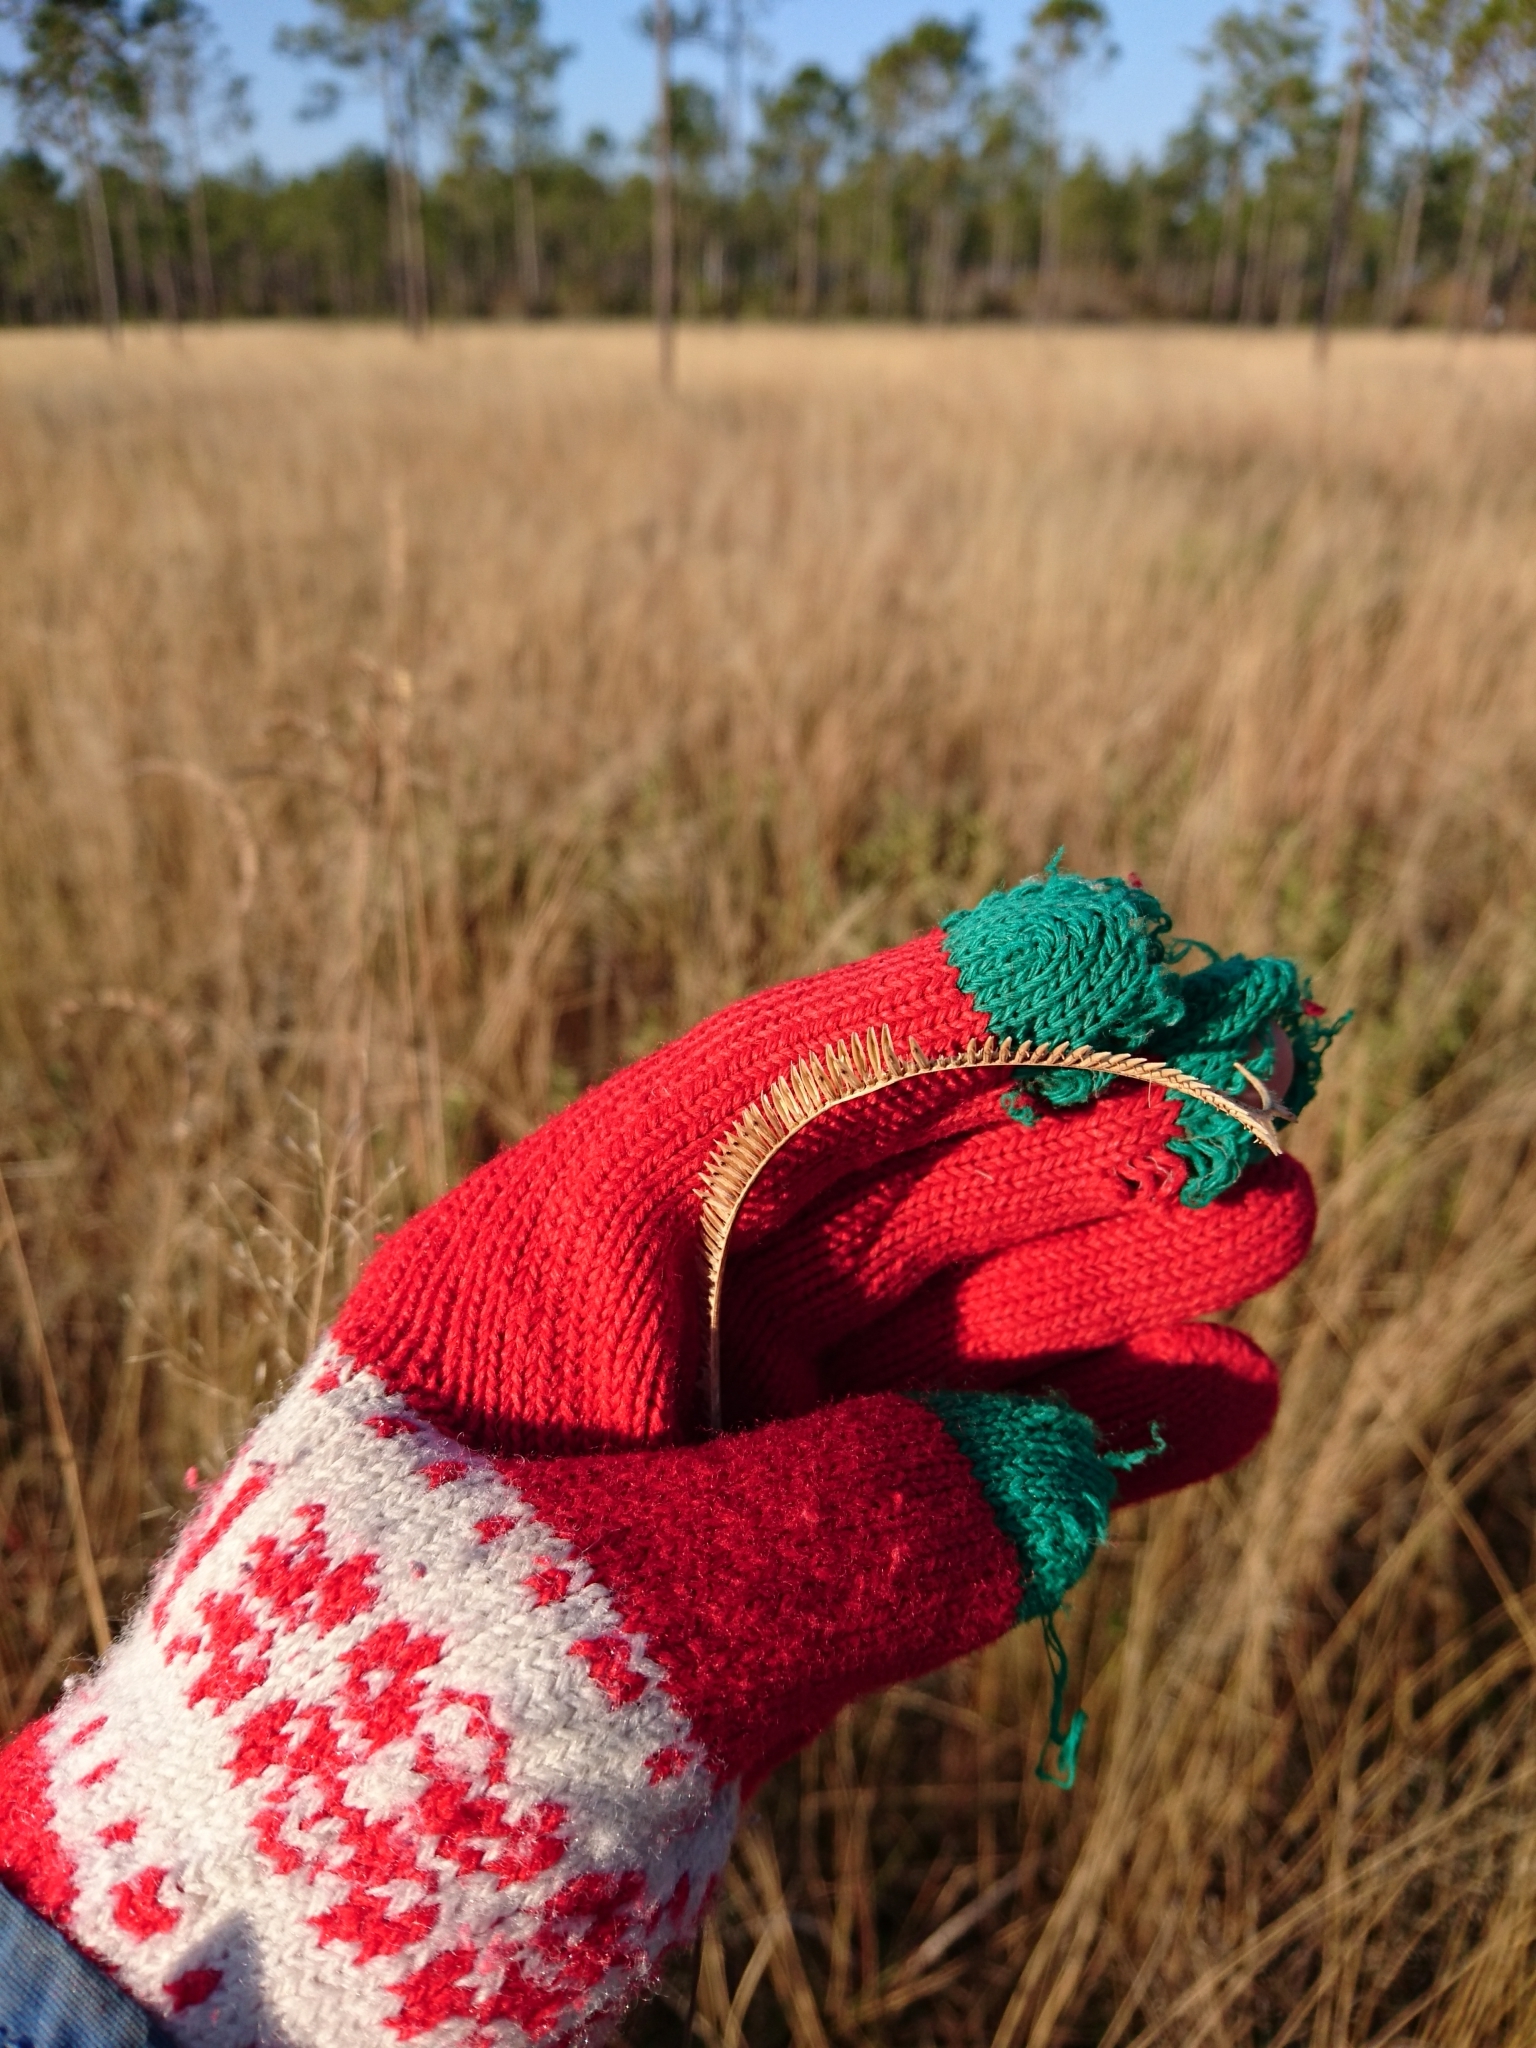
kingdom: Plantae
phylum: Tracheophyta
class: Liliopsida
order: Poales
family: Poaceae
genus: Ctenium
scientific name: Ctenium aromaticum
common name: Toothache grass
